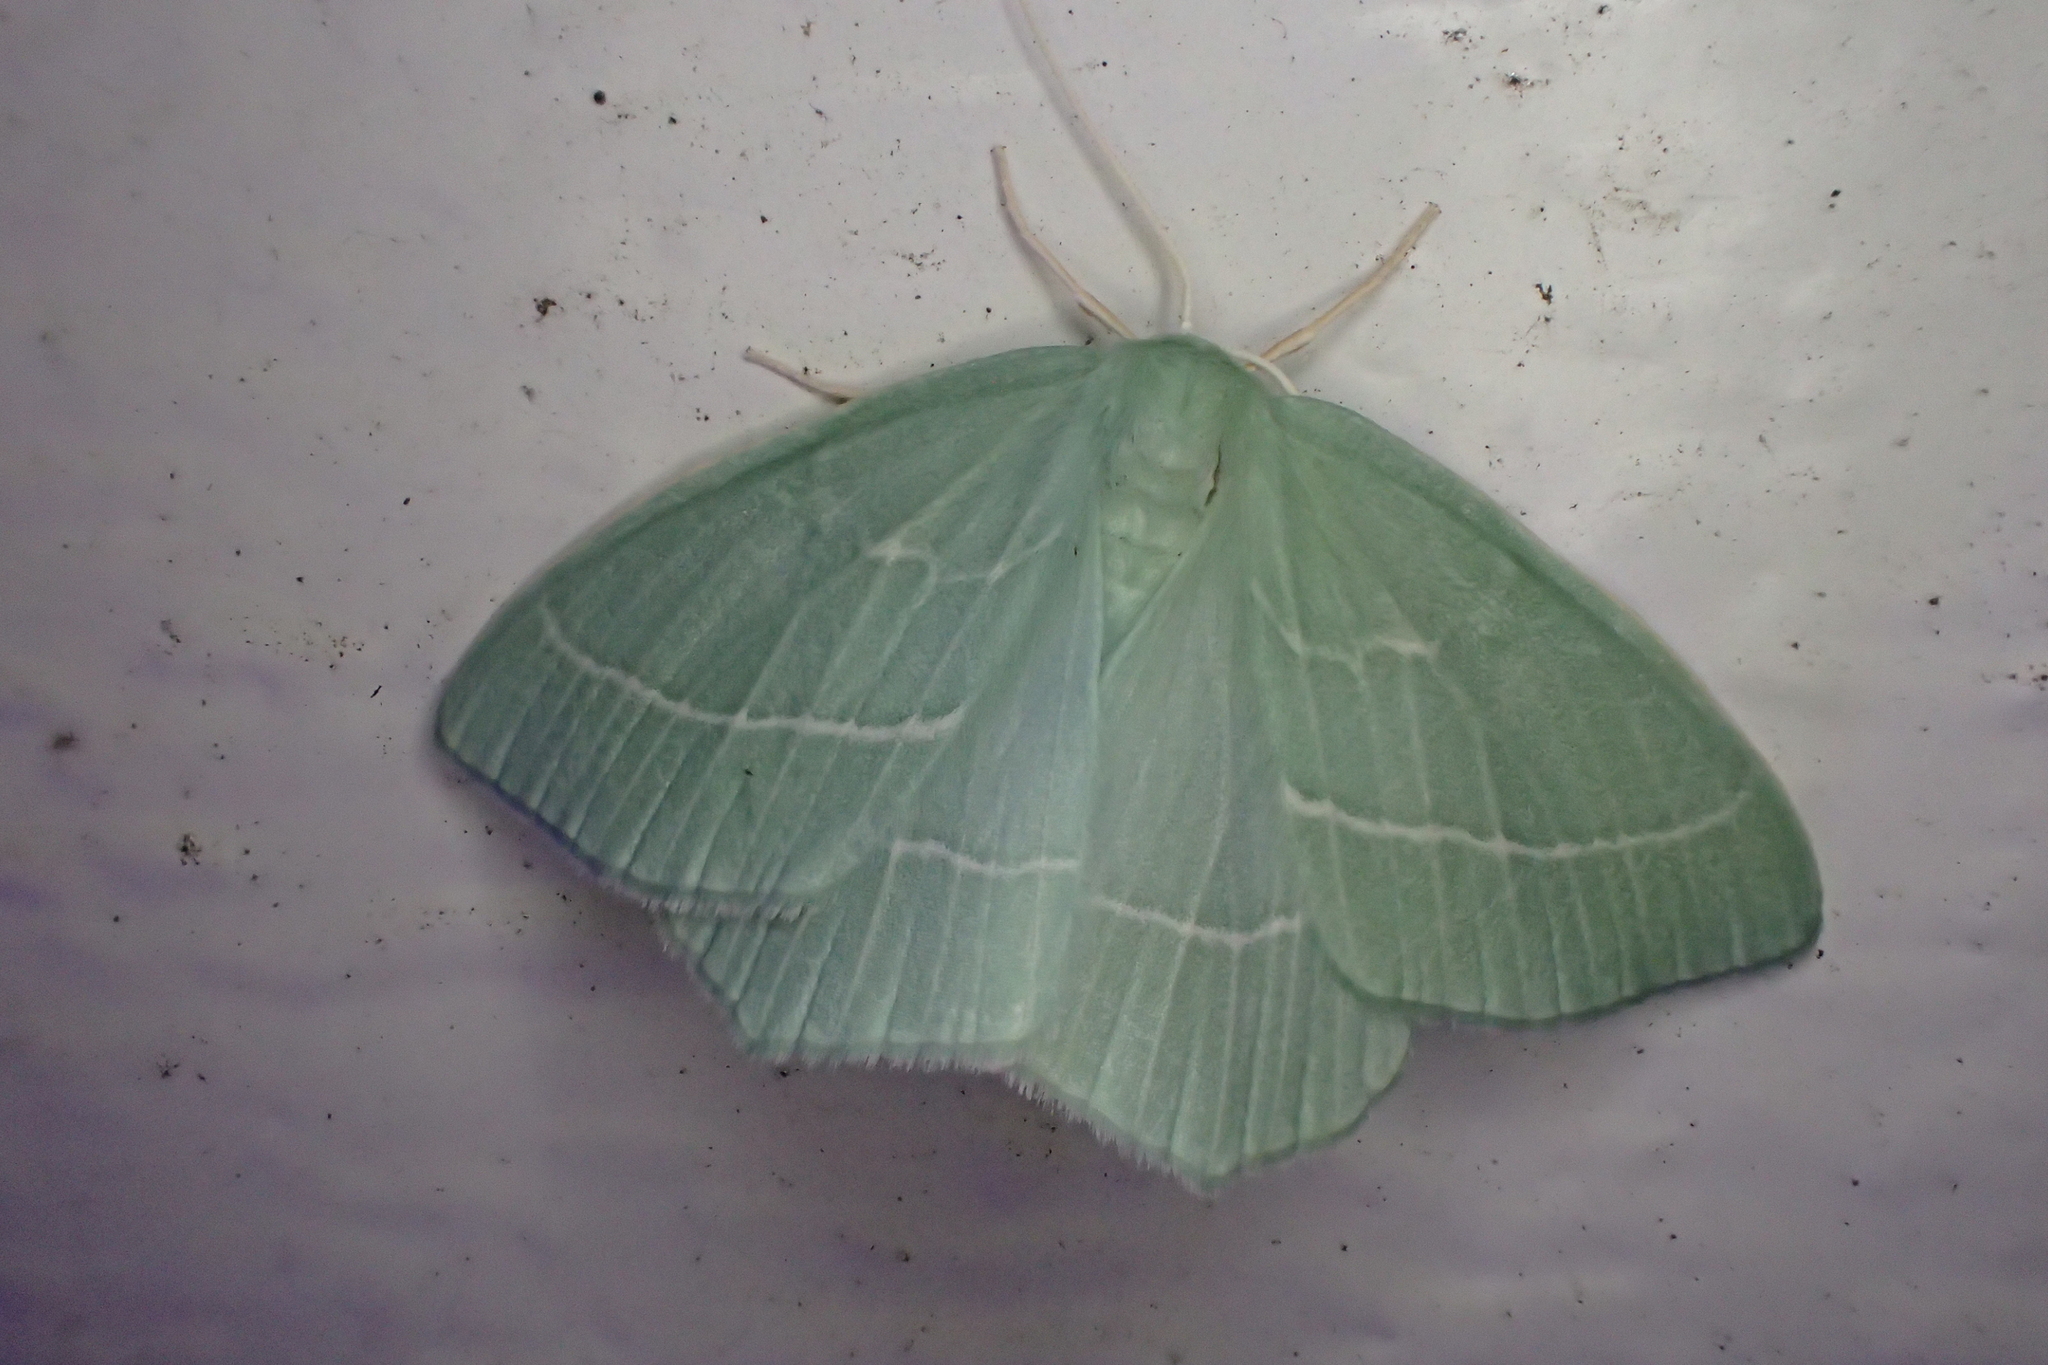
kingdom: Animalia
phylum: Arthropoda
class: Insecta
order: Lepidoptera
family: Geometridae
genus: Hemistola
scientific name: Hemistola chrysoprasaria
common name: Small emerald
